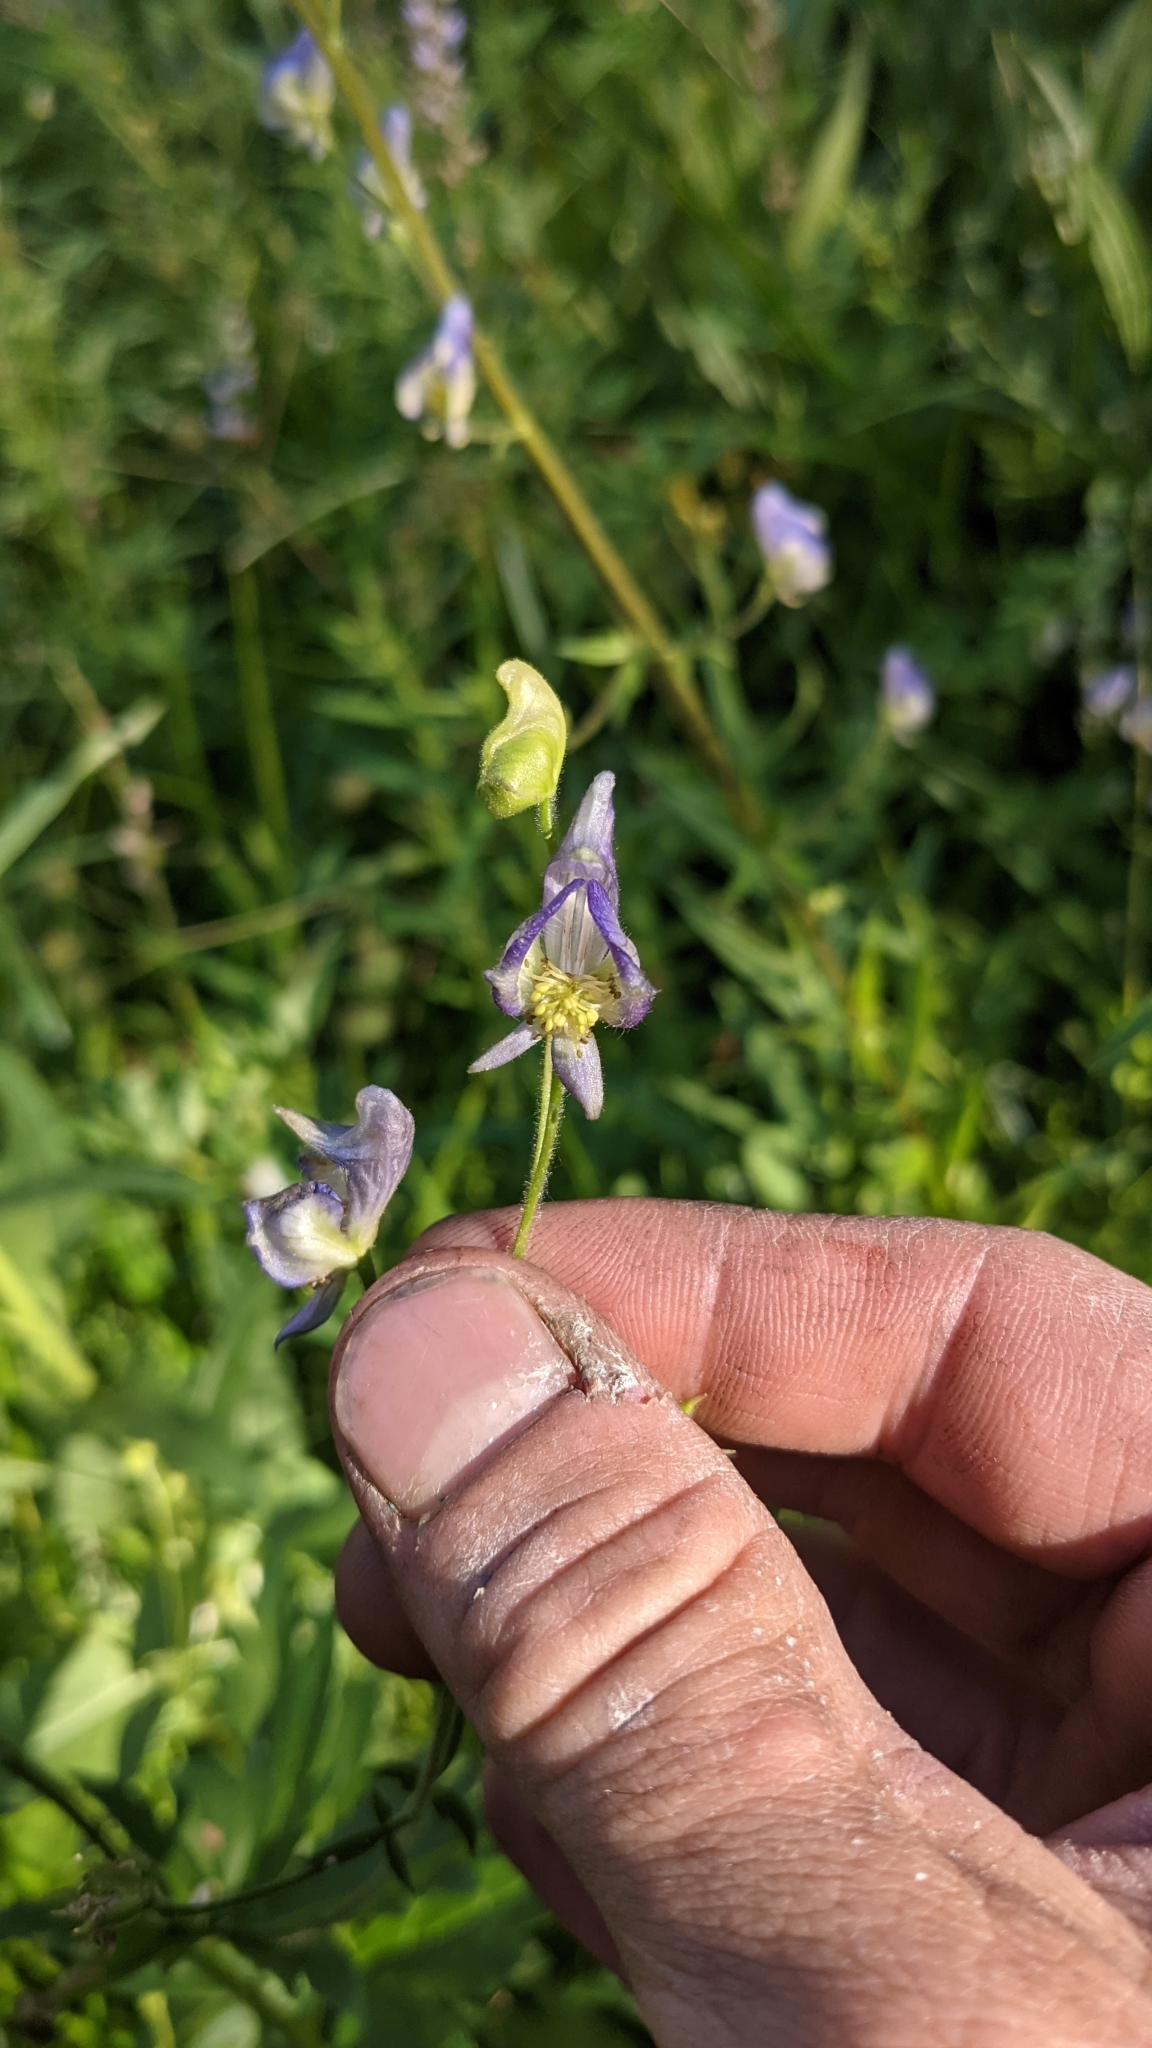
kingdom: Plantae
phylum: Tracheophyta
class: Magnoliopsida
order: Ranunculales
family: Ranunculaceae
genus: Aconitum
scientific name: Aconitum columbianum
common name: Columbia aconite
